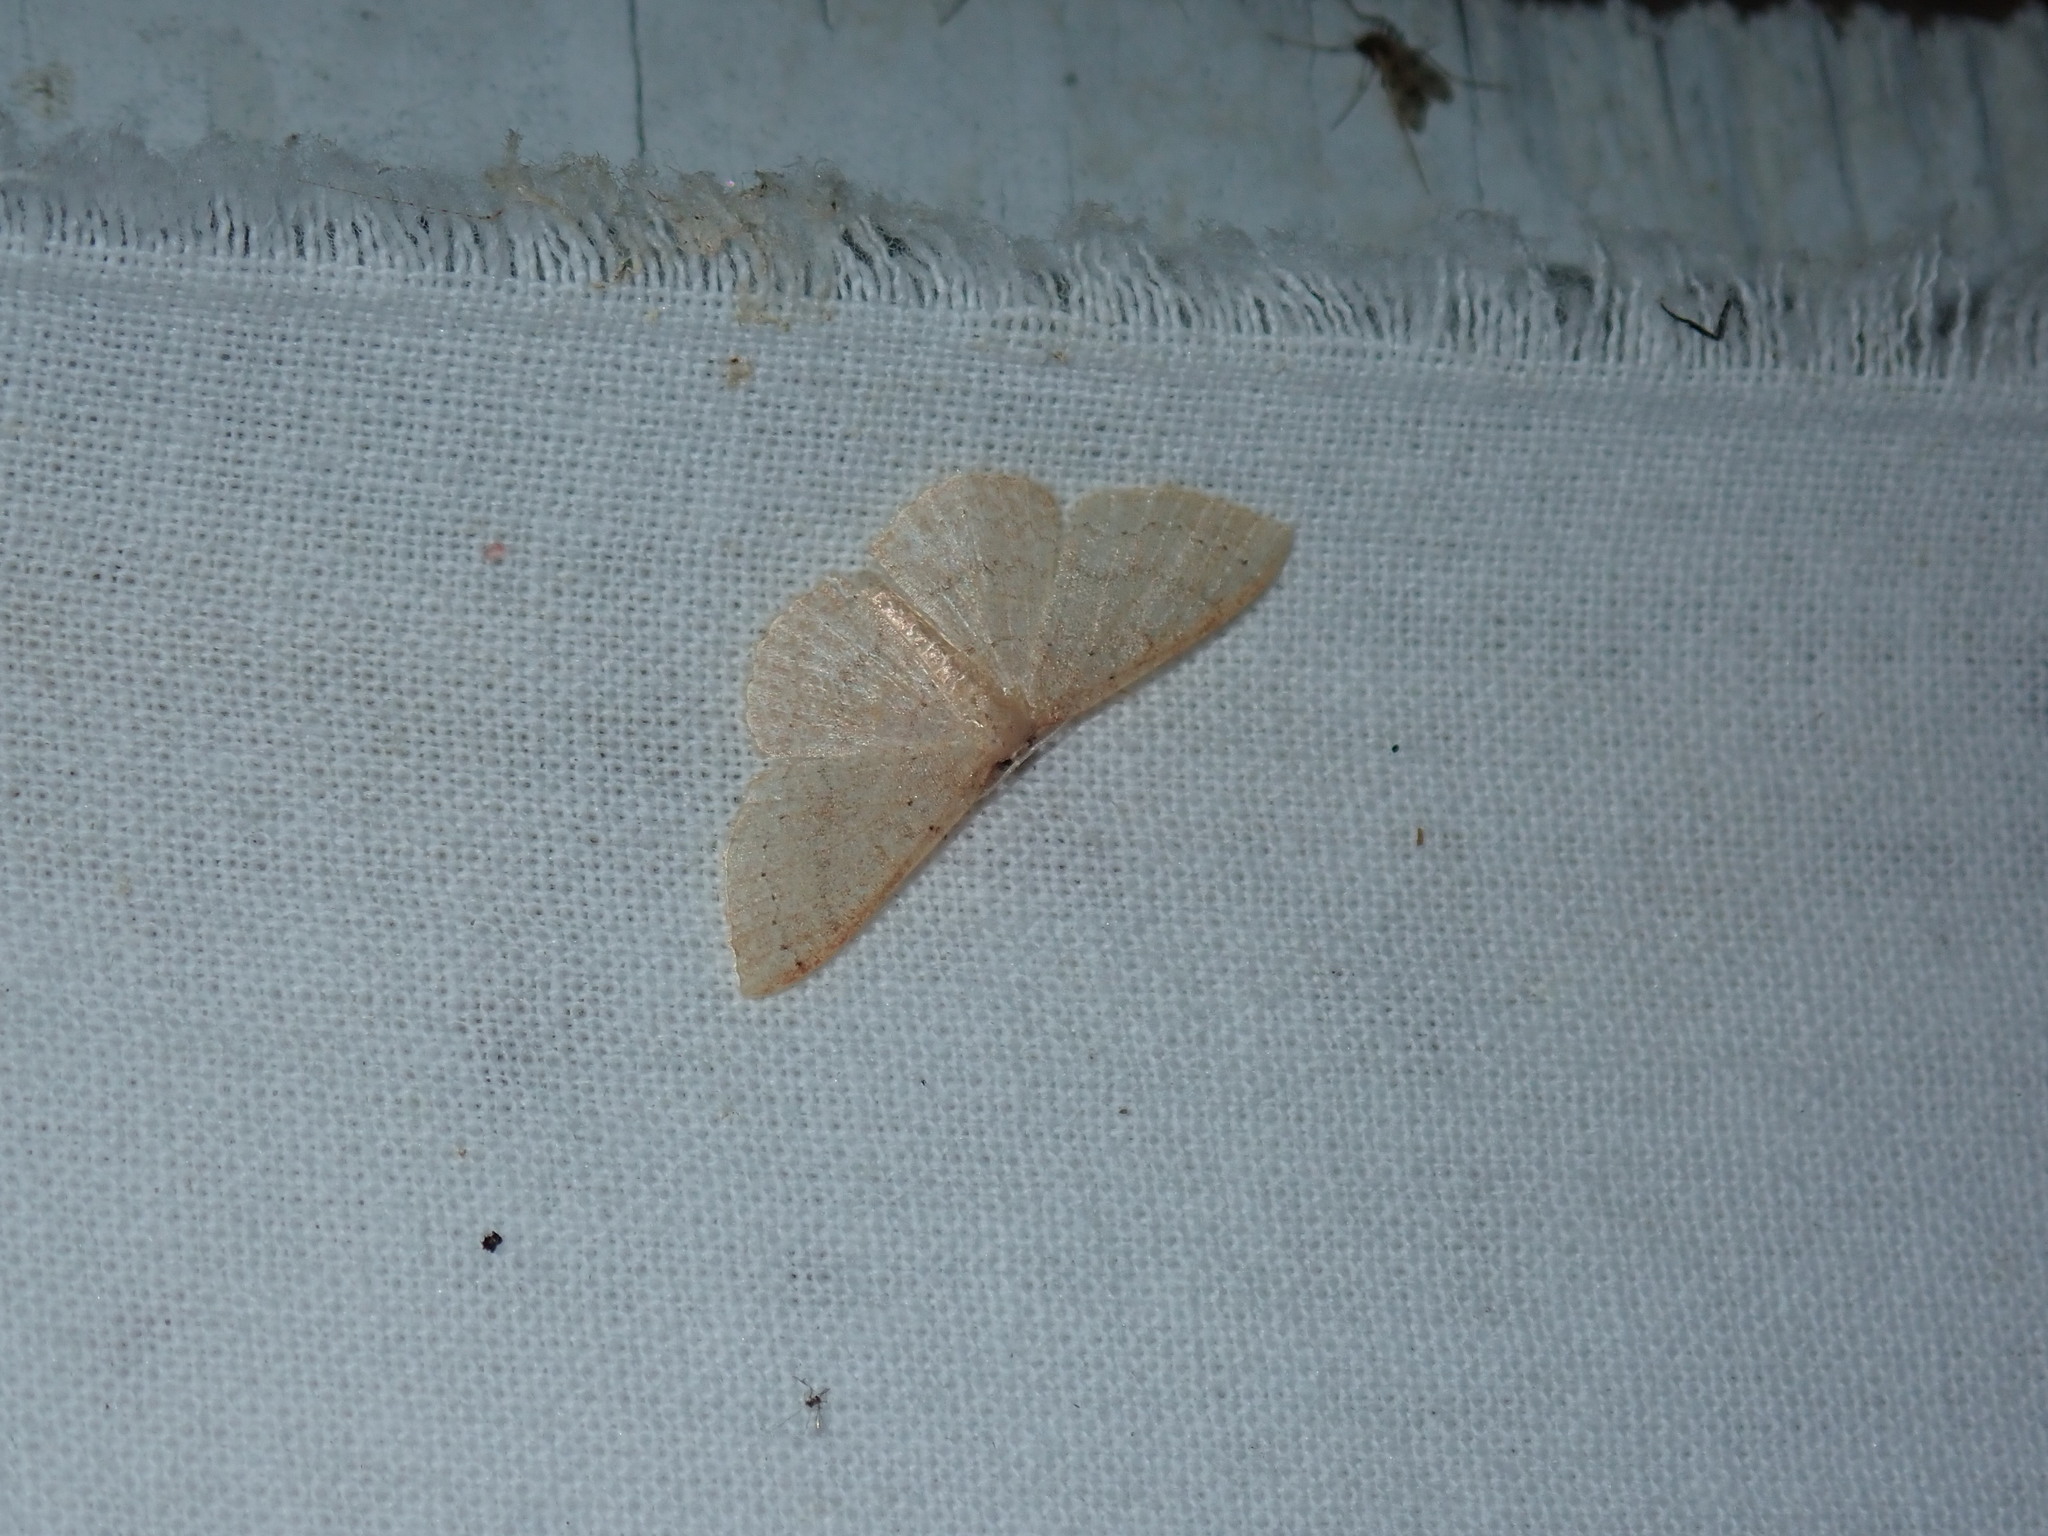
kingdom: Animalia
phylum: Arthropoda
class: Insecta
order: Lepidoptera
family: Geometridae
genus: Pleuroprucha
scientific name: Pleuroprucha insulsaria
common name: Common tan wave
